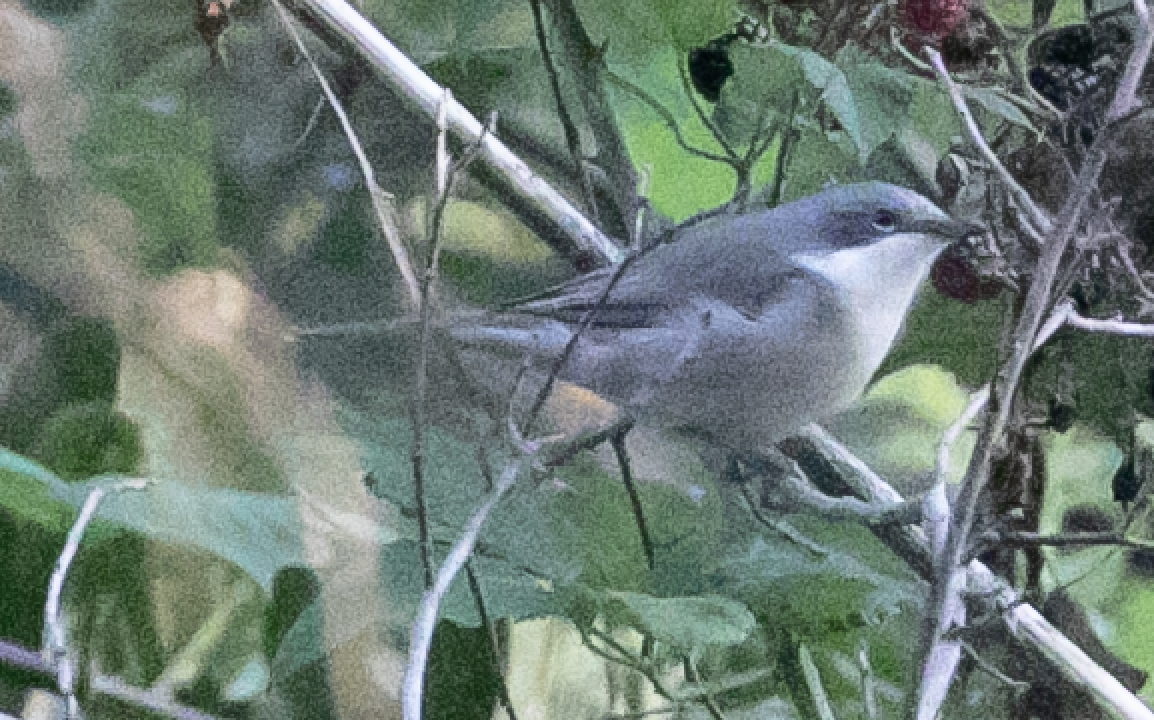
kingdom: Animalia
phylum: Chordata
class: Aves
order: Passeriformes
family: Sylviidae
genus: Sylvia
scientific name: Sylvia curruca
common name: Lesser whitethroat
